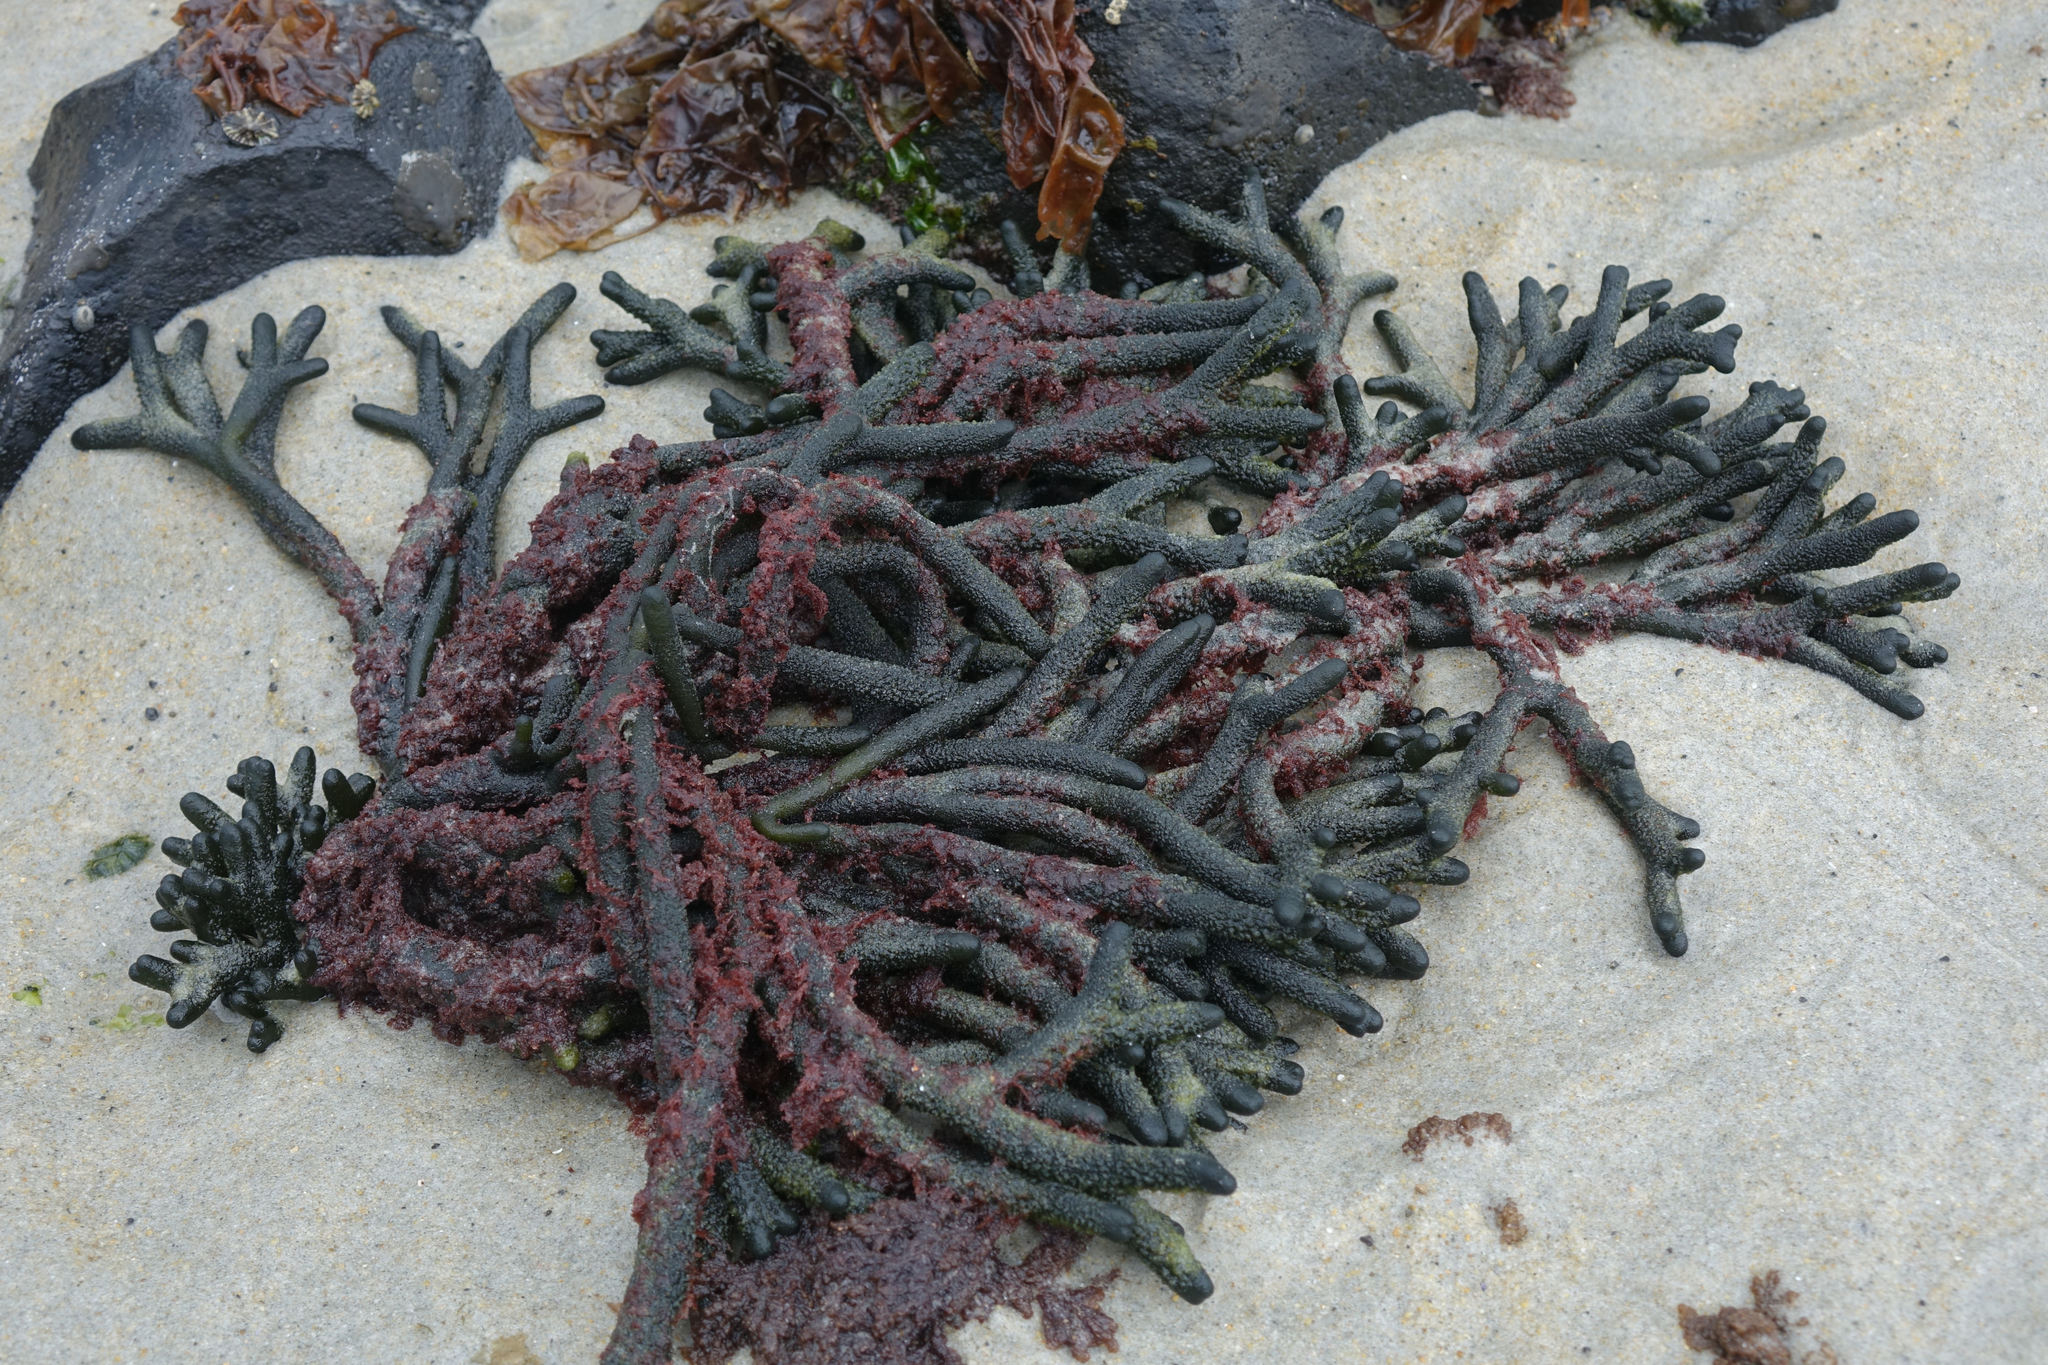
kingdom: Plantae
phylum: Chlorophyta
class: Ulvophyceae
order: Bryopsidales
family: Codiaceae
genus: Codium
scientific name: Codium fragile
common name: Dead man's fingers
